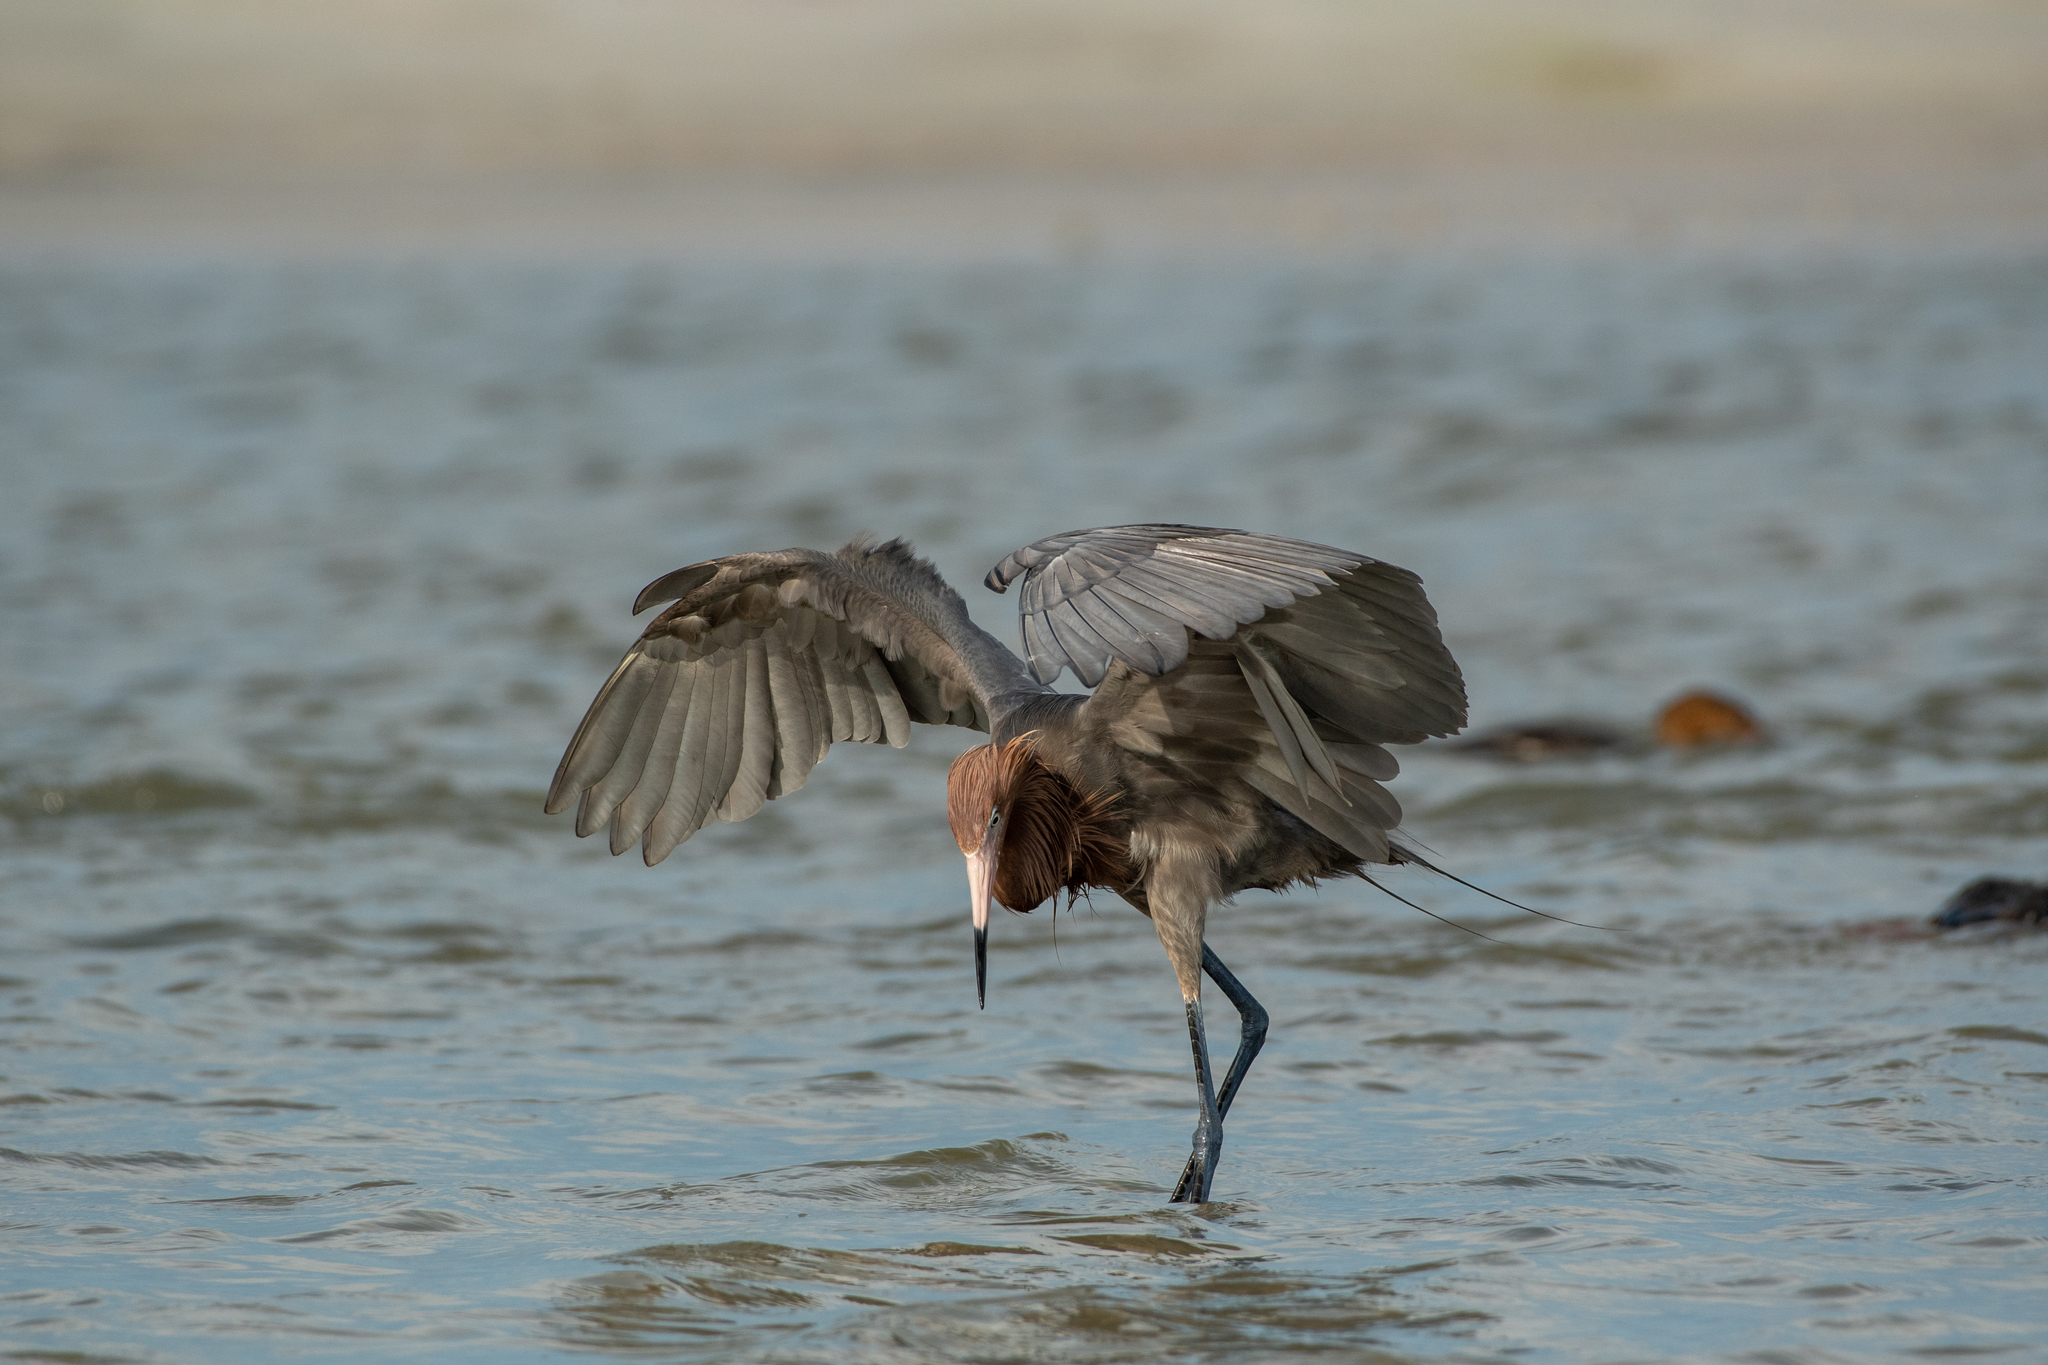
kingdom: Animalia
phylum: Chordata
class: Aves
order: Pelecaniformes
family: Ardeidae
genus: Egretta
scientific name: Egretta rufescens
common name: Reddish egret
